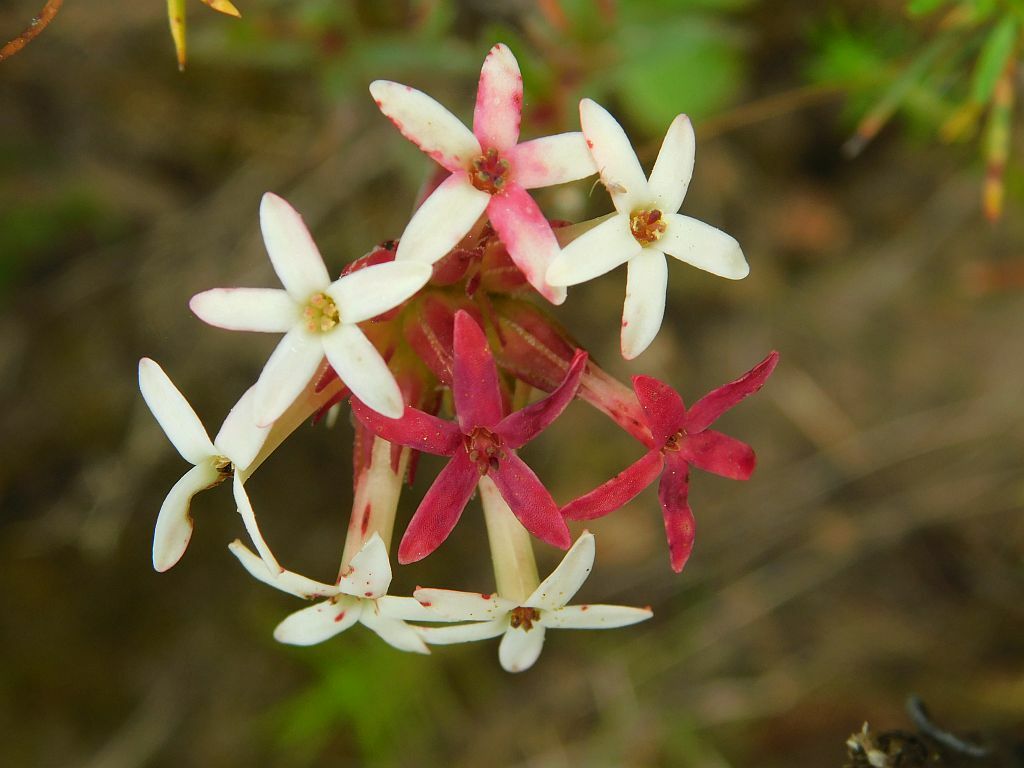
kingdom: Plantae
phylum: Tracheophyta
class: Magnoliopsida
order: Saxifragales
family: Crassulaceae
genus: Crassula
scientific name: Crassula fascicularis
